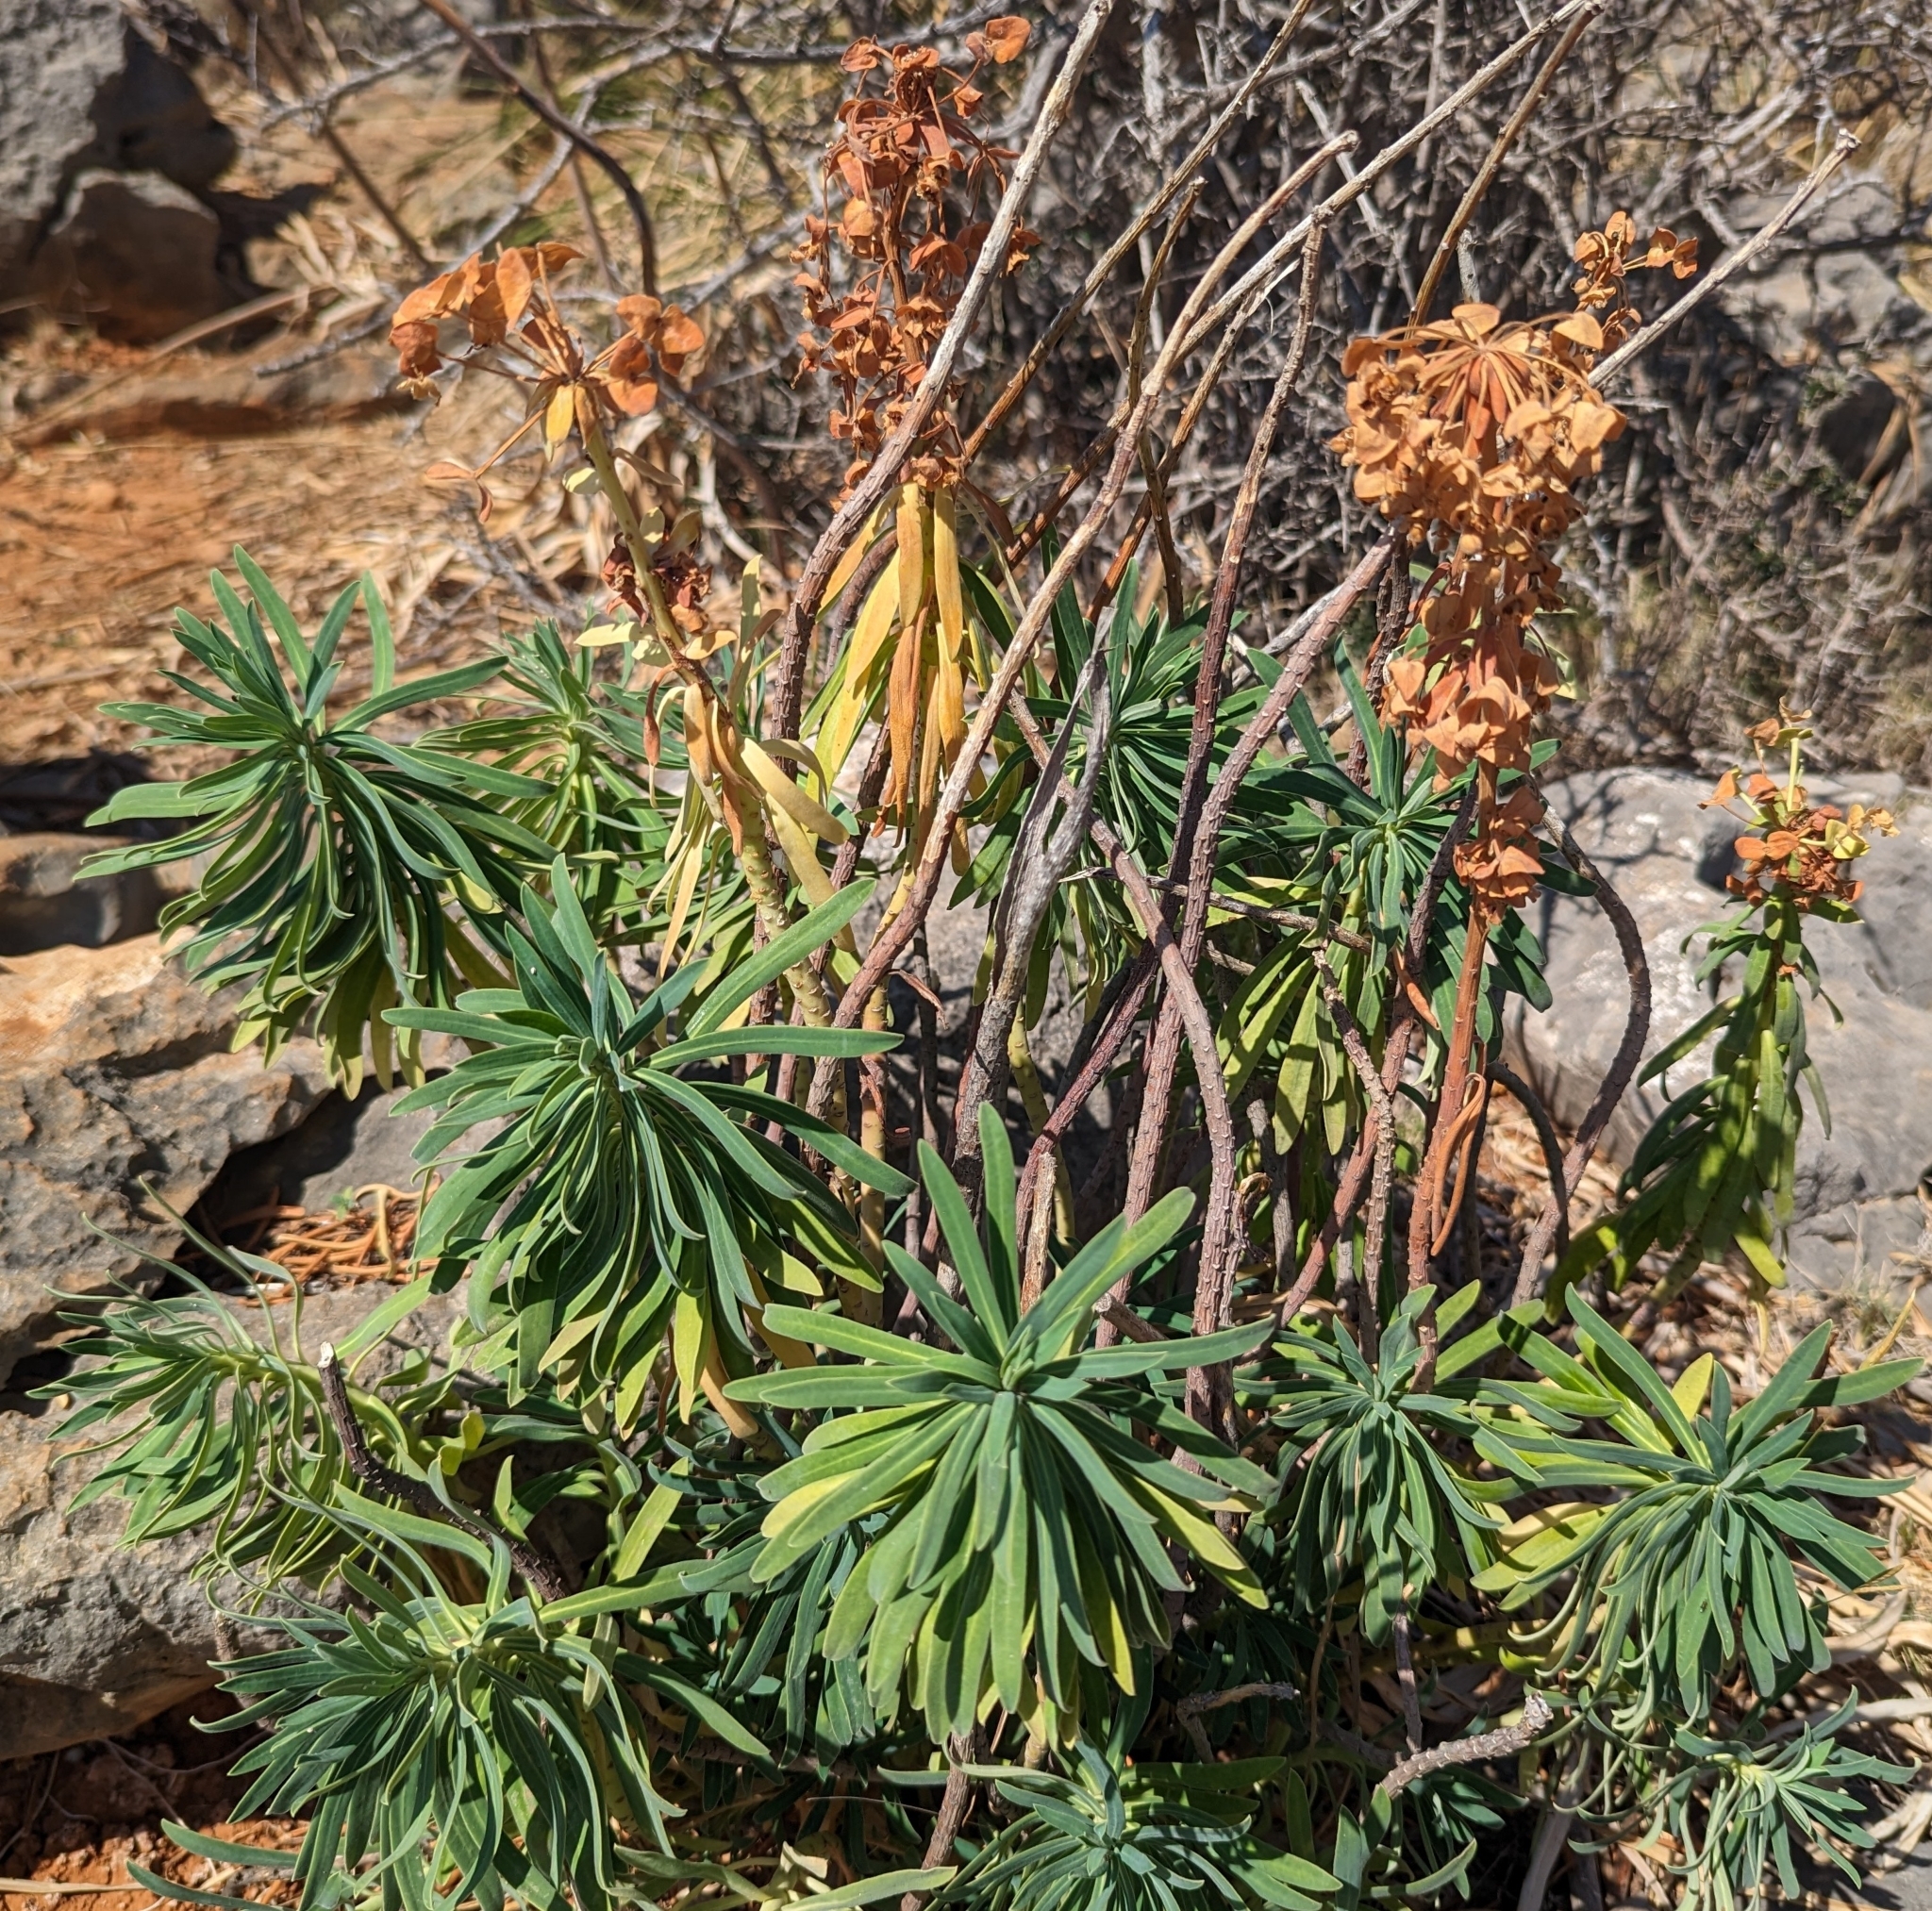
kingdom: Plantae
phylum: Tracheophyta
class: Magnoliopsida
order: Malpighiales
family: Euphorbiaceae
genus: Euphorbia
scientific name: Euphorbia characias
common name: Mediterranean spurge
